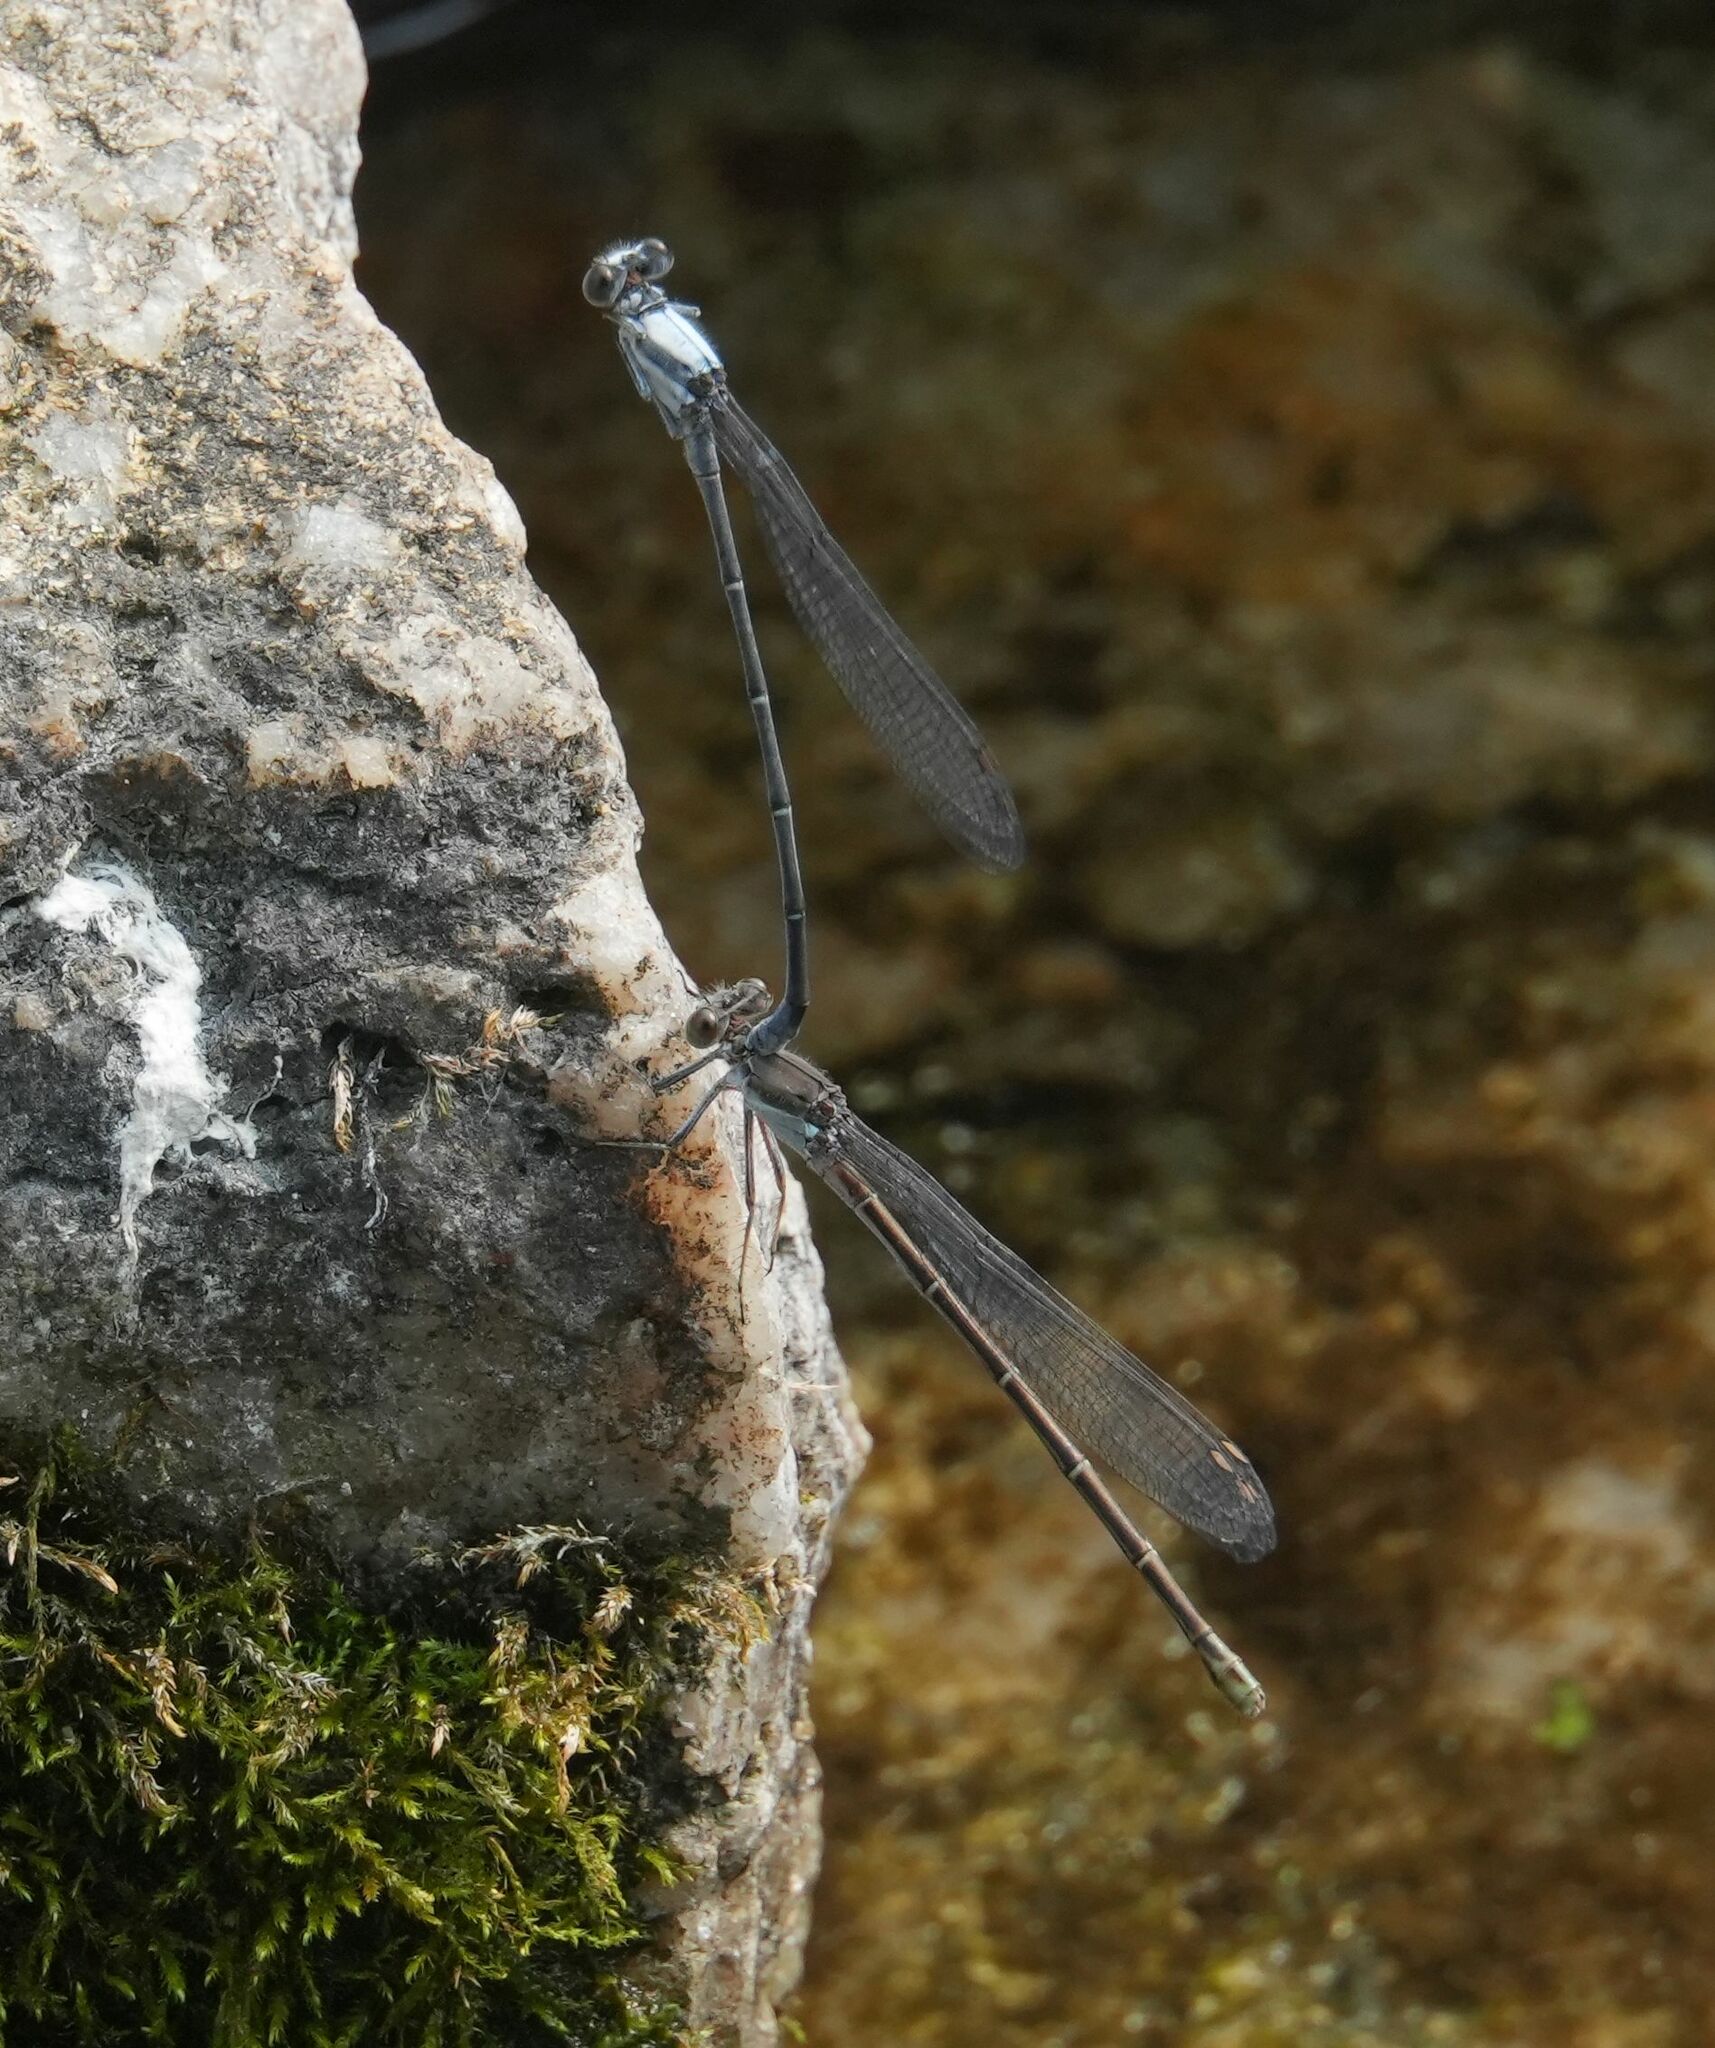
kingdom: Animalia
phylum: Arthropoda
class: Insecta
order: Odonata
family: Coenagrionidae
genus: Argia
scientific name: Argia moesta
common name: Powdered dancer
